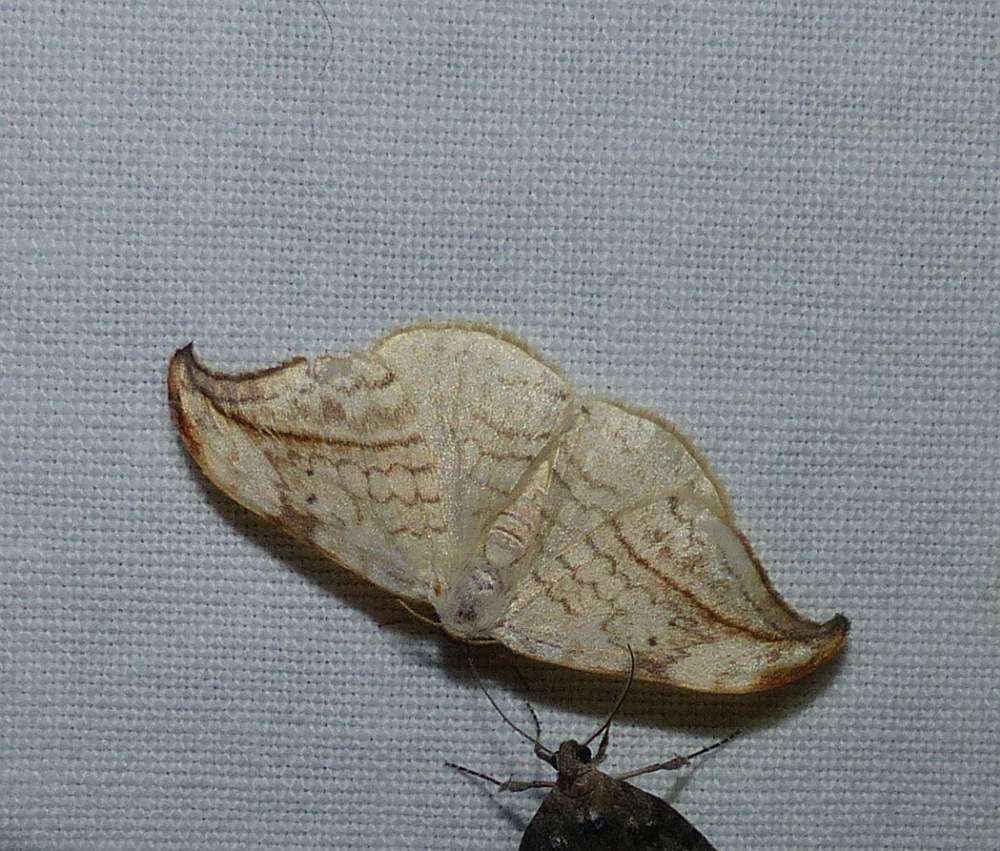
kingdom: Animalia
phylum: Arthropoda
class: Insecta
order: Lepidoptera
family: Drepanidae
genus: Drepana
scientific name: Drepana arcuata
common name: Arched hooktip moth
